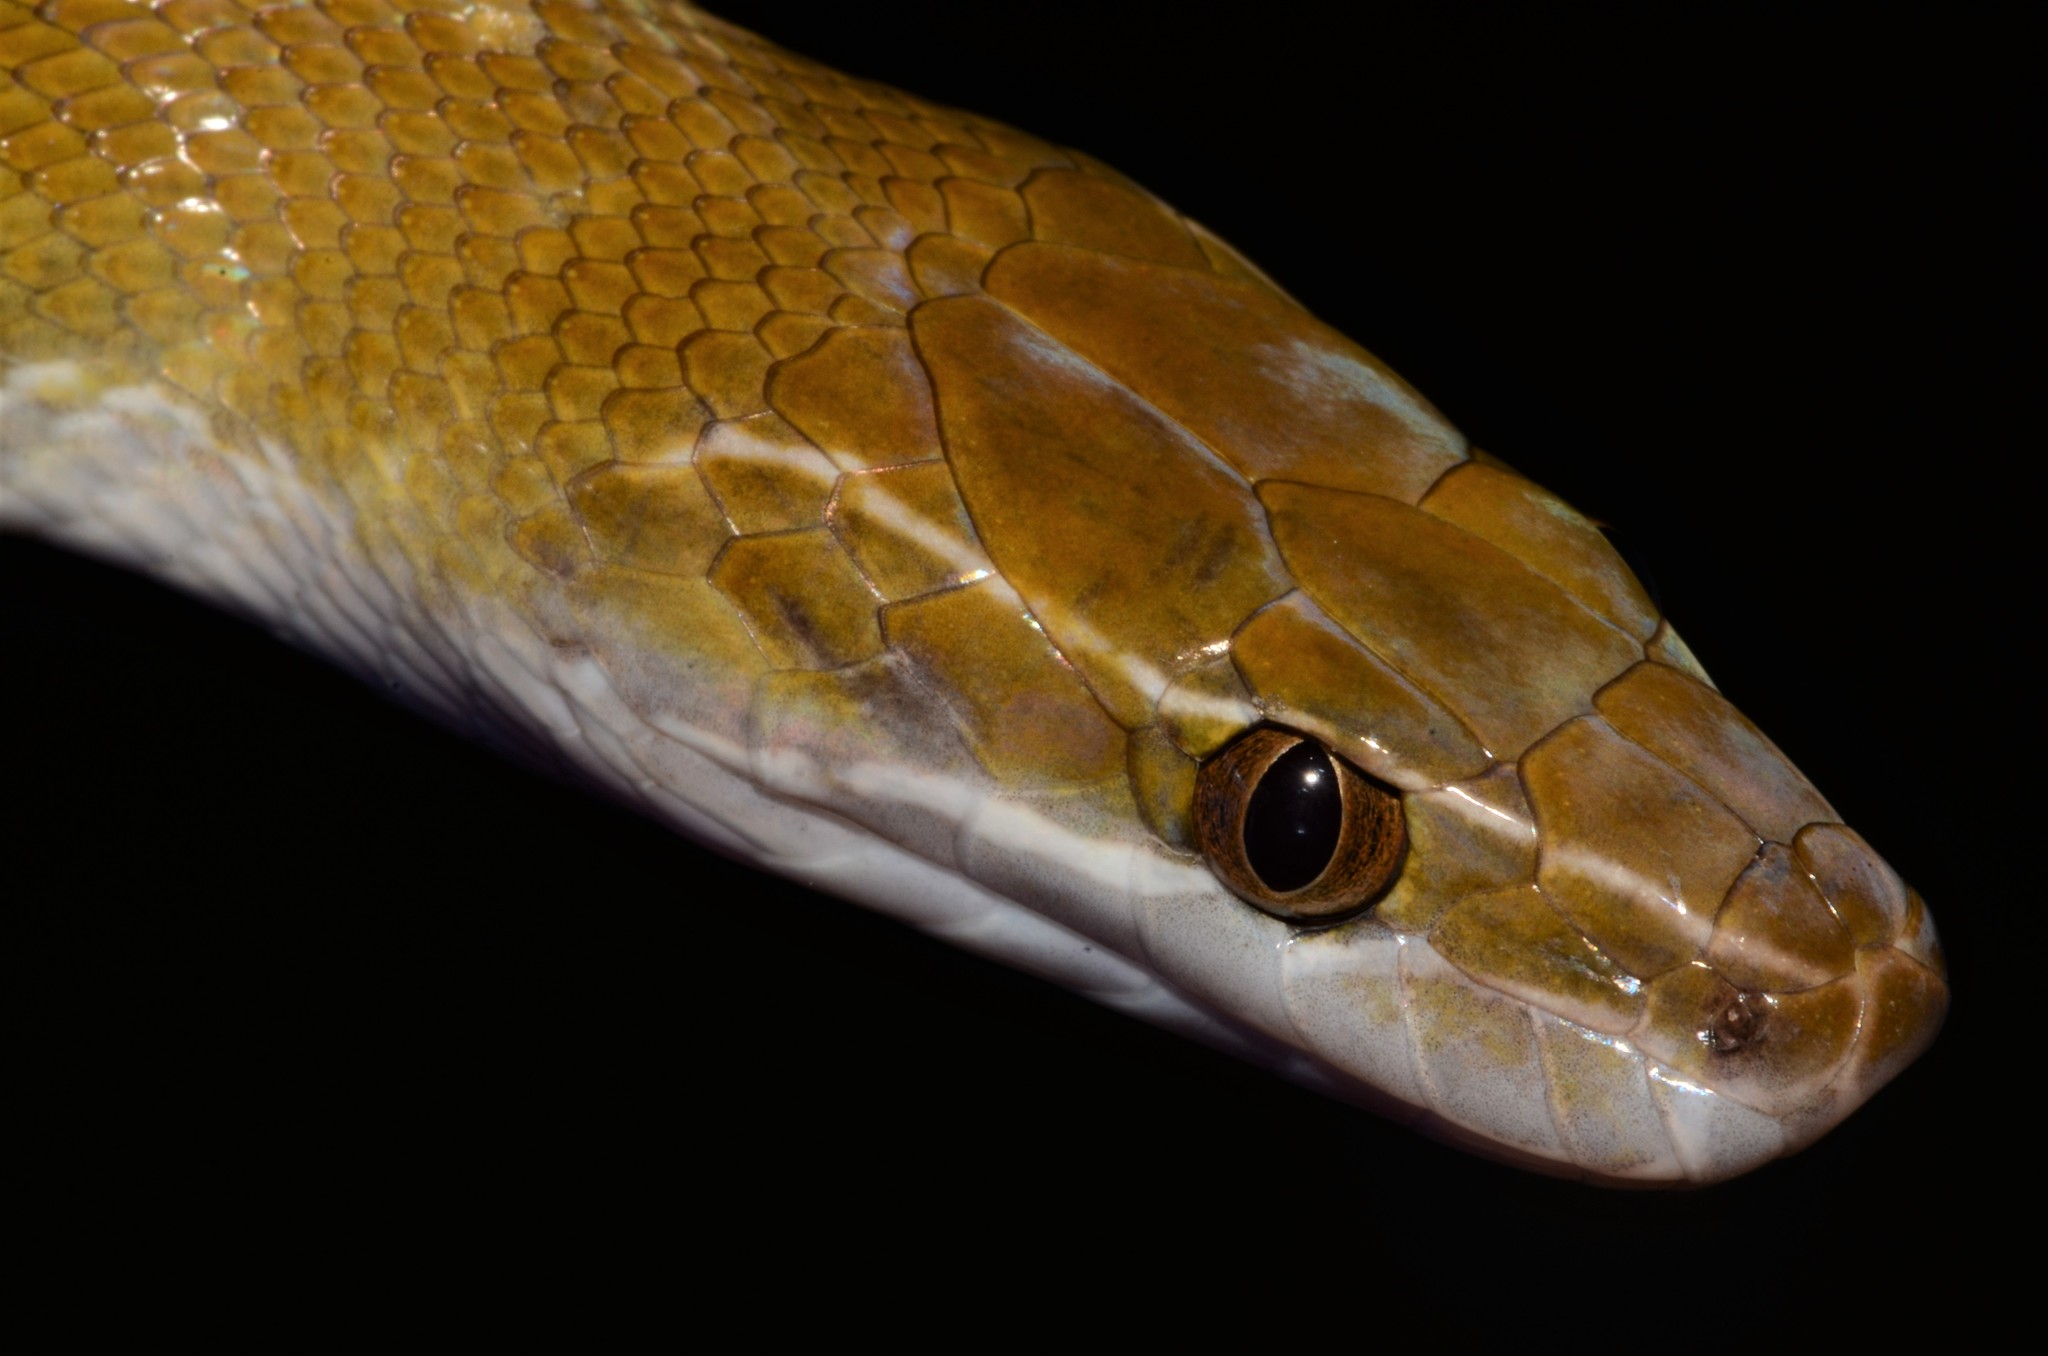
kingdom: Animalia
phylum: Chordata
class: Squamata
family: Lamprophiidae
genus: Boaedon
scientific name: Boaedon littoralis
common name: Coastal house snake
